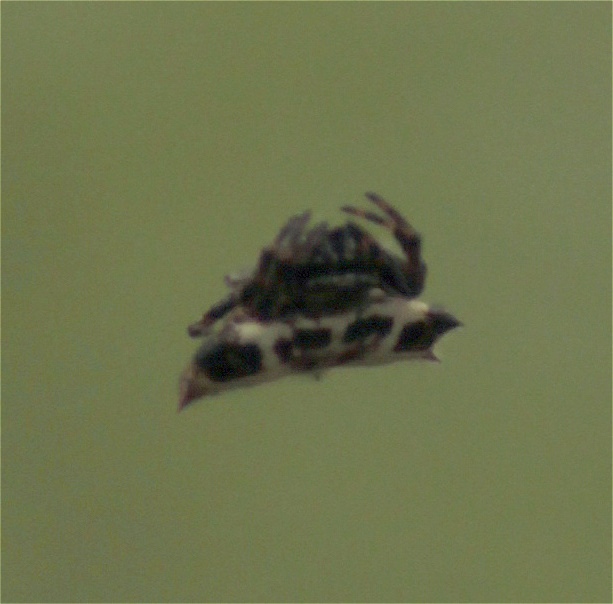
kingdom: Animalia
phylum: Arthropoda
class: Arachnida
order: Araneae
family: Araneidae
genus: Gasteracantha
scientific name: Gasteracantha cancriformis
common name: Orb weavers
